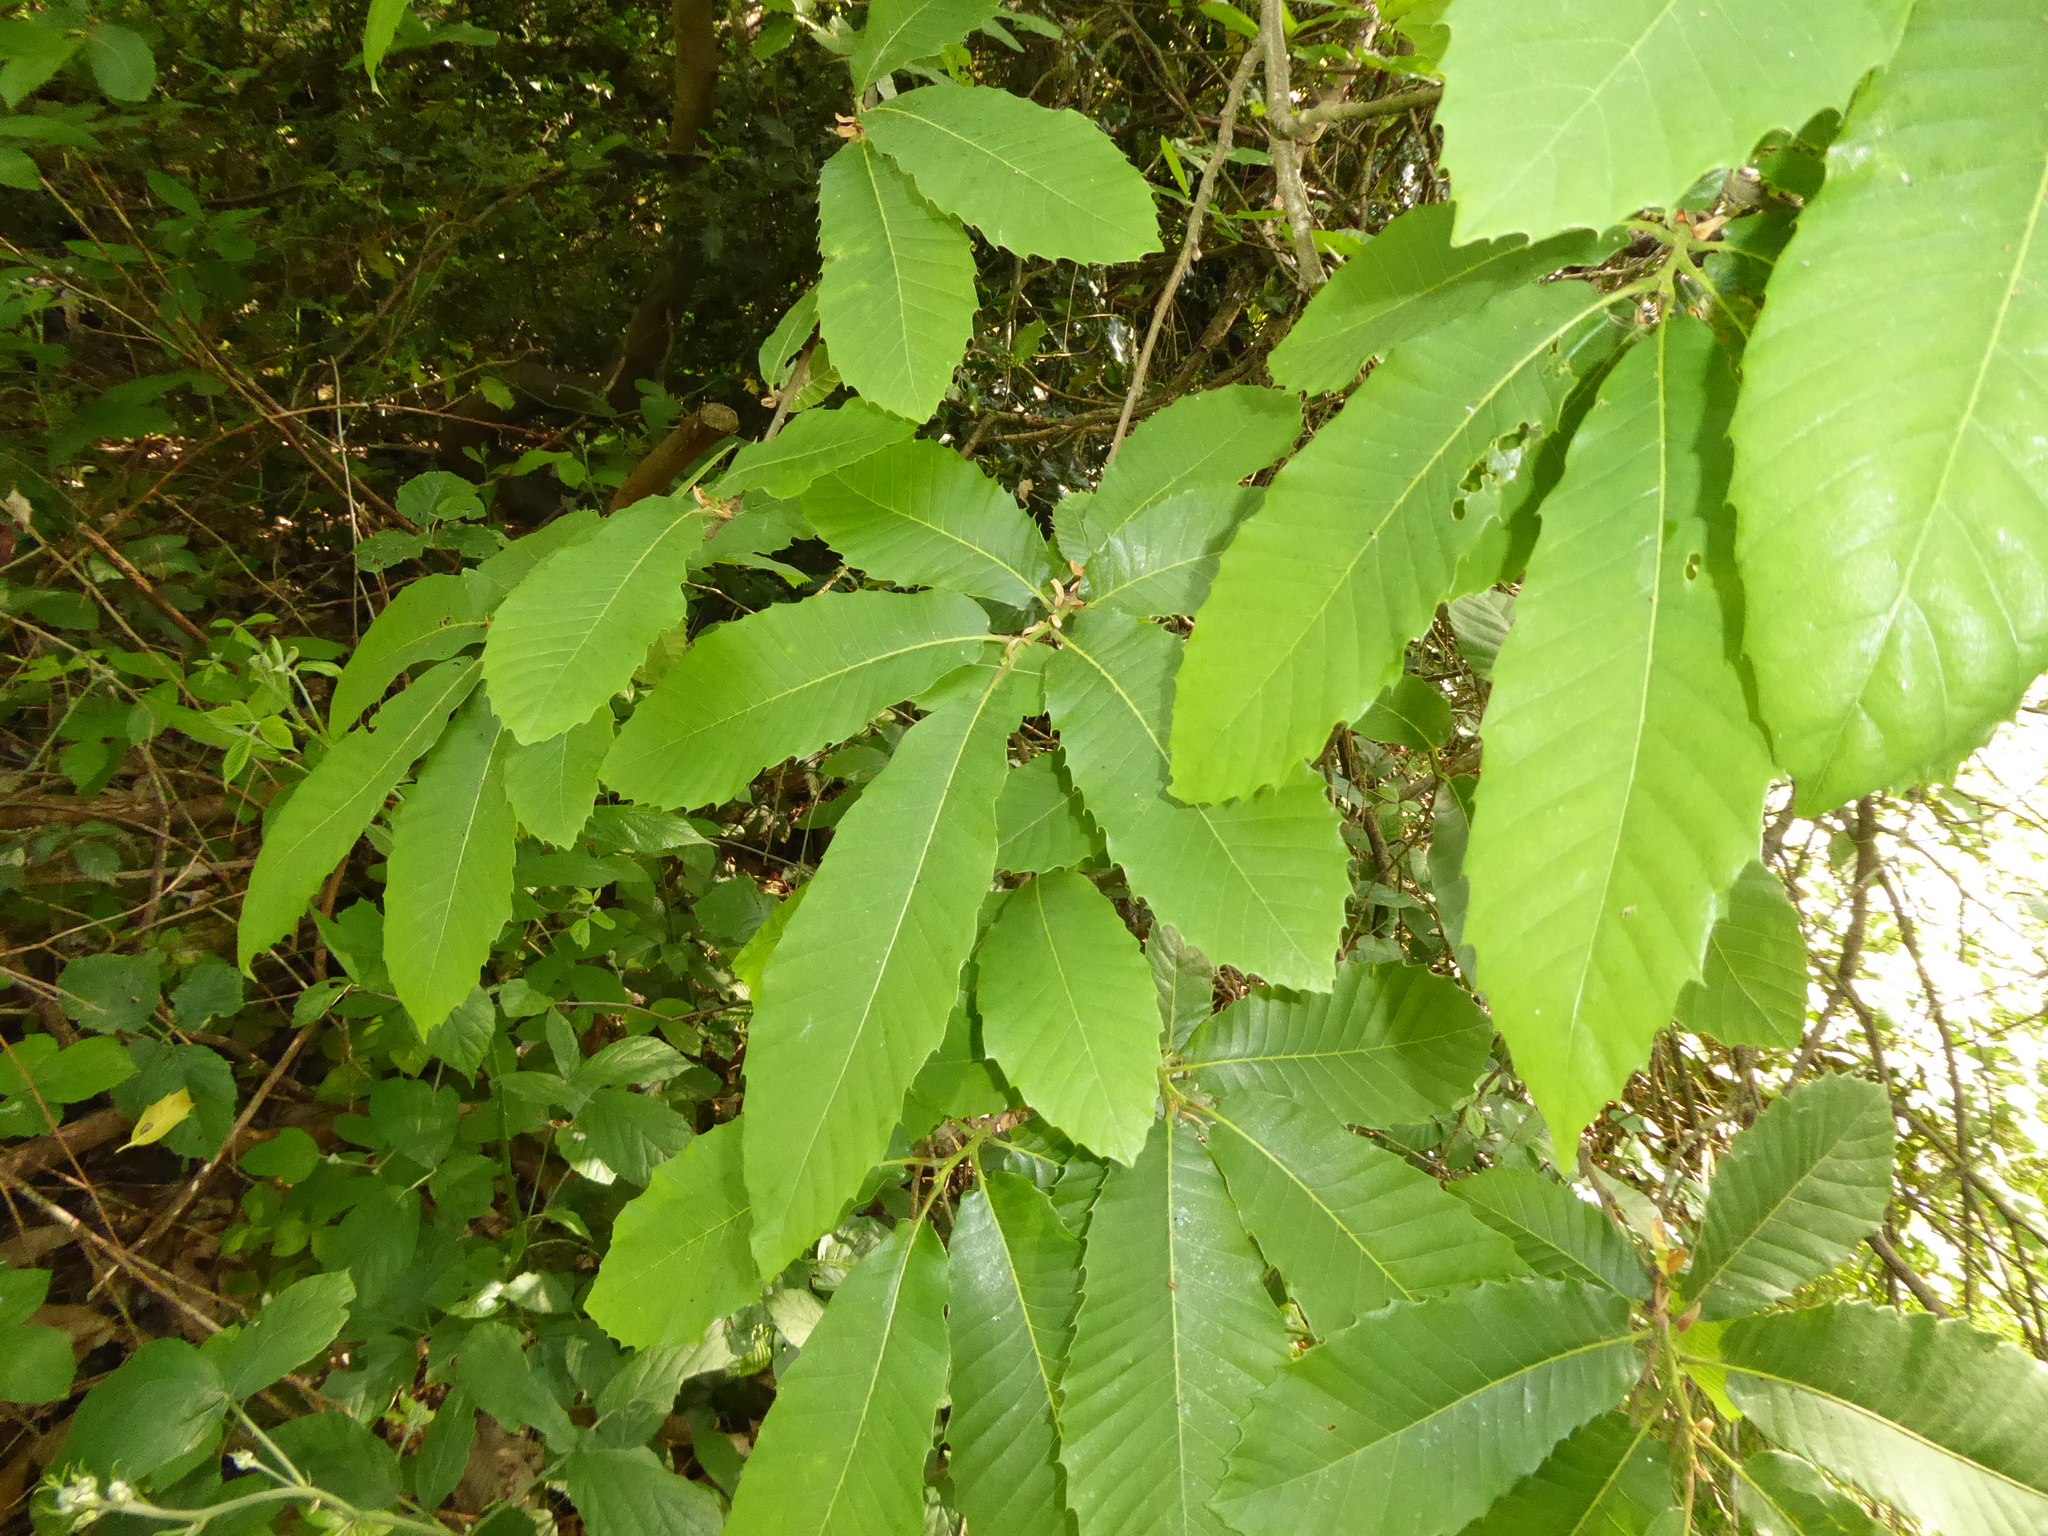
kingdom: Plantae
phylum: Tracheophyta
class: Magnoliopsida
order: Fagales
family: Fagaceae
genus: Castanea
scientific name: Castanea sativa
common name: Sweet chestnut
